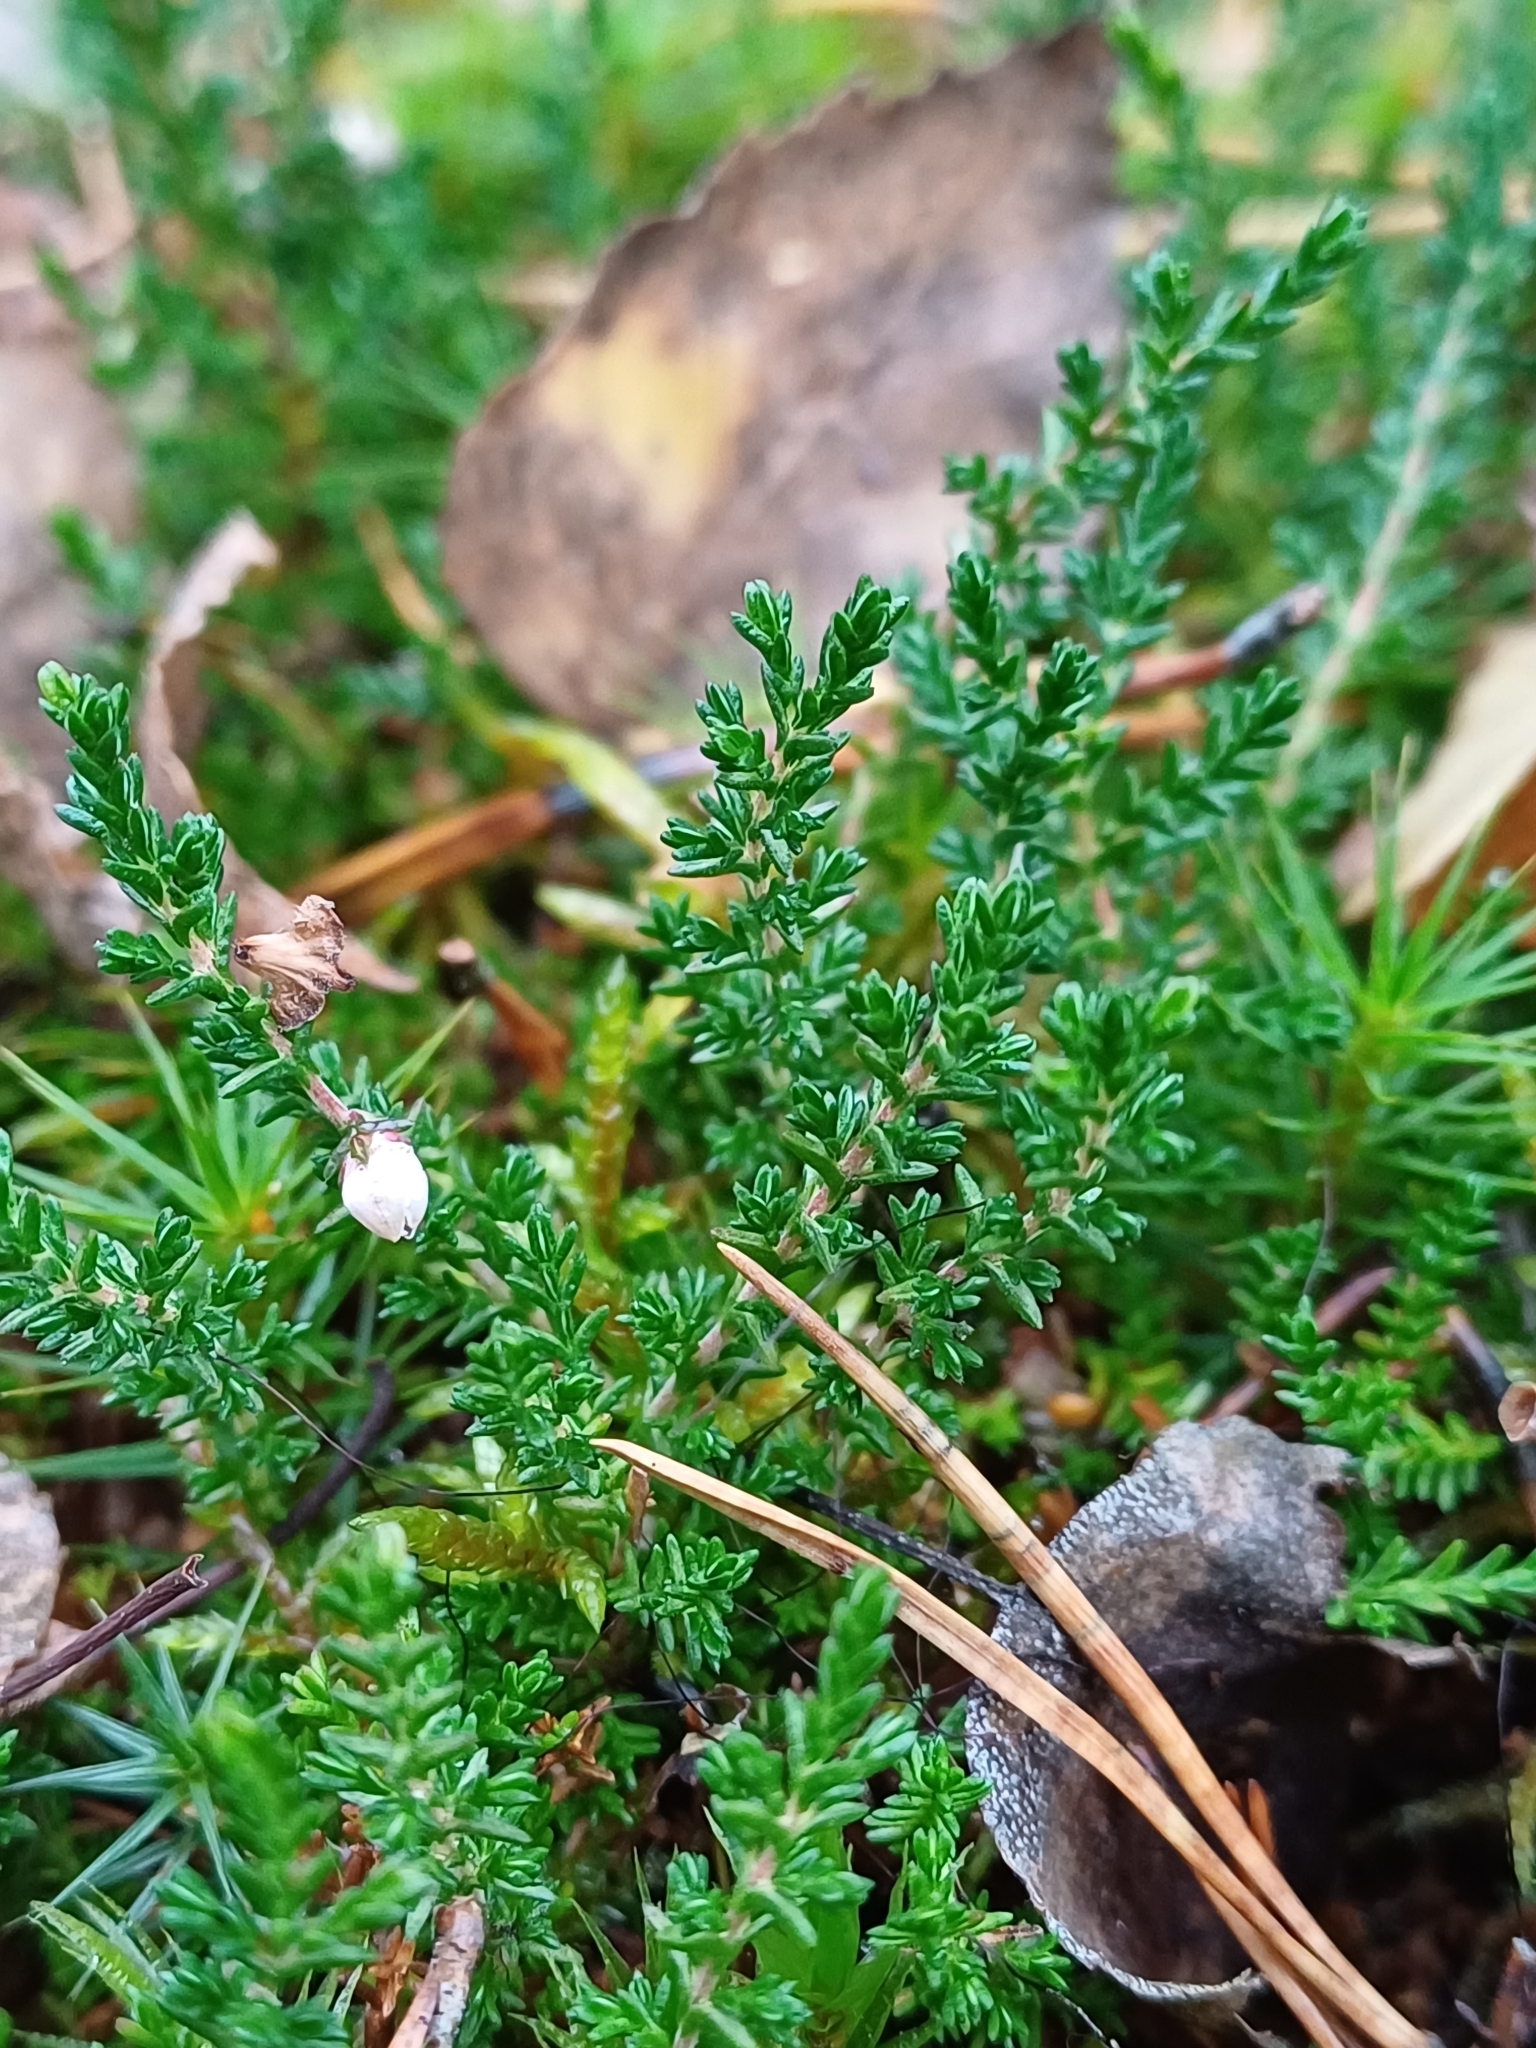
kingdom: Plantae
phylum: Tracheophyta
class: Magnoliopsida
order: Ericales
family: Ericaceae
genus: Calluna
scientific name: Calluna vulgaris
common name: Heather
